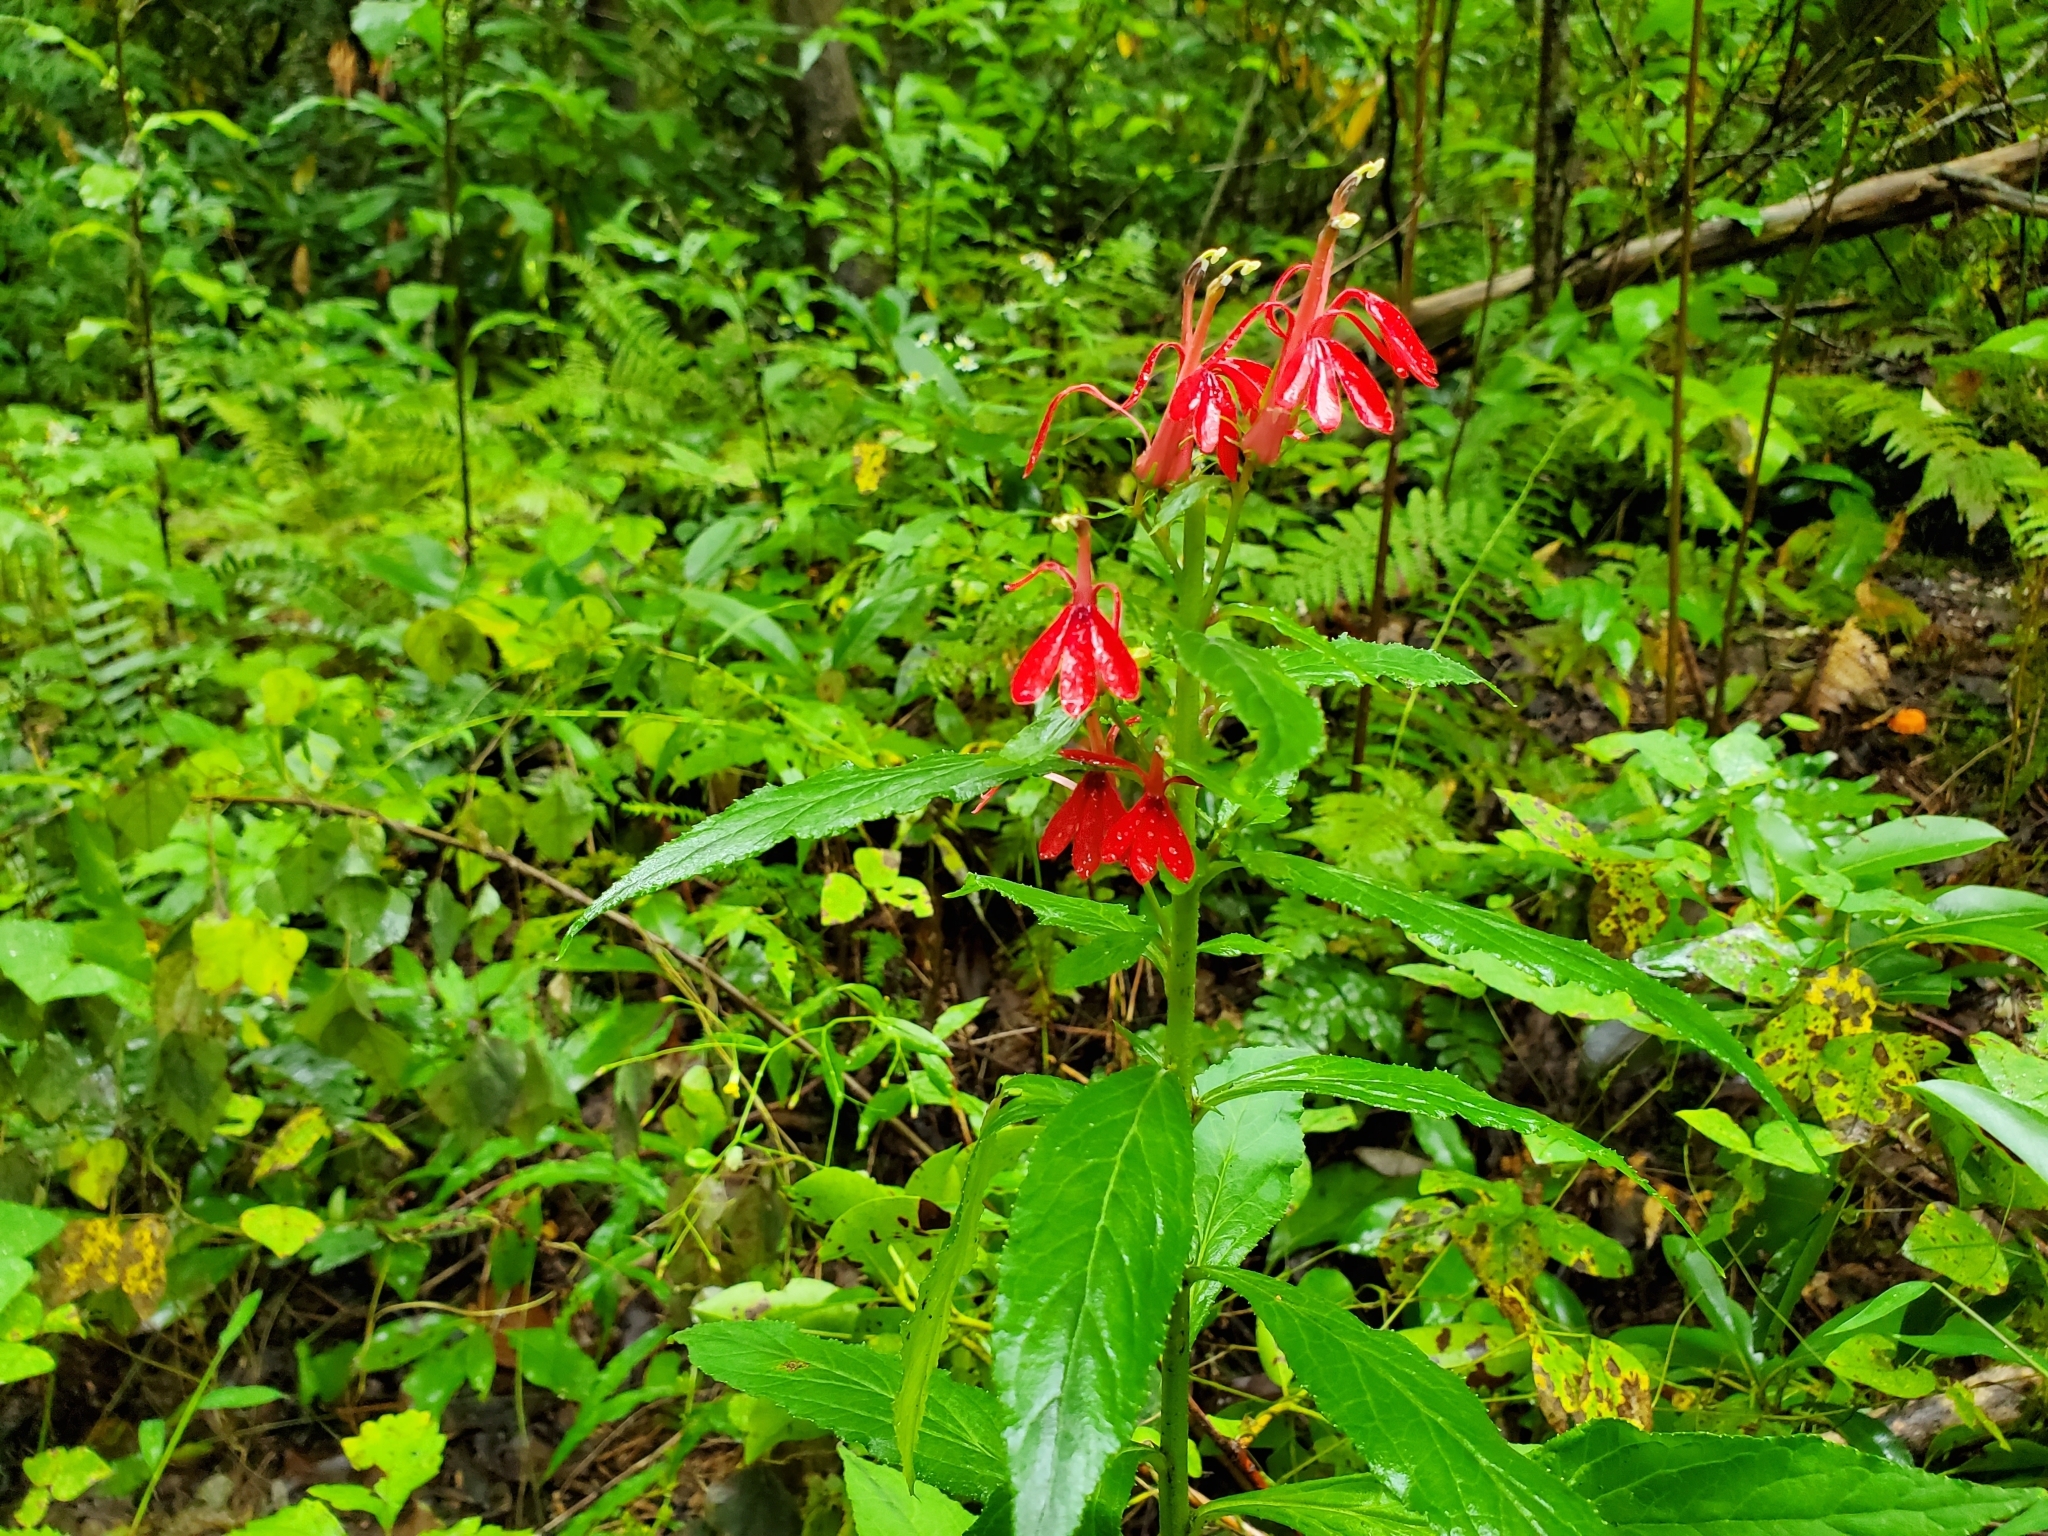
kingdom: Plantae
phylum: Tracheophyta
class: Magnoliopsida
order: Asterales
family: Campanulaceae
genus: Lobelia
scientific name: Lobelia cardinalis
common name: Cardinal flower
